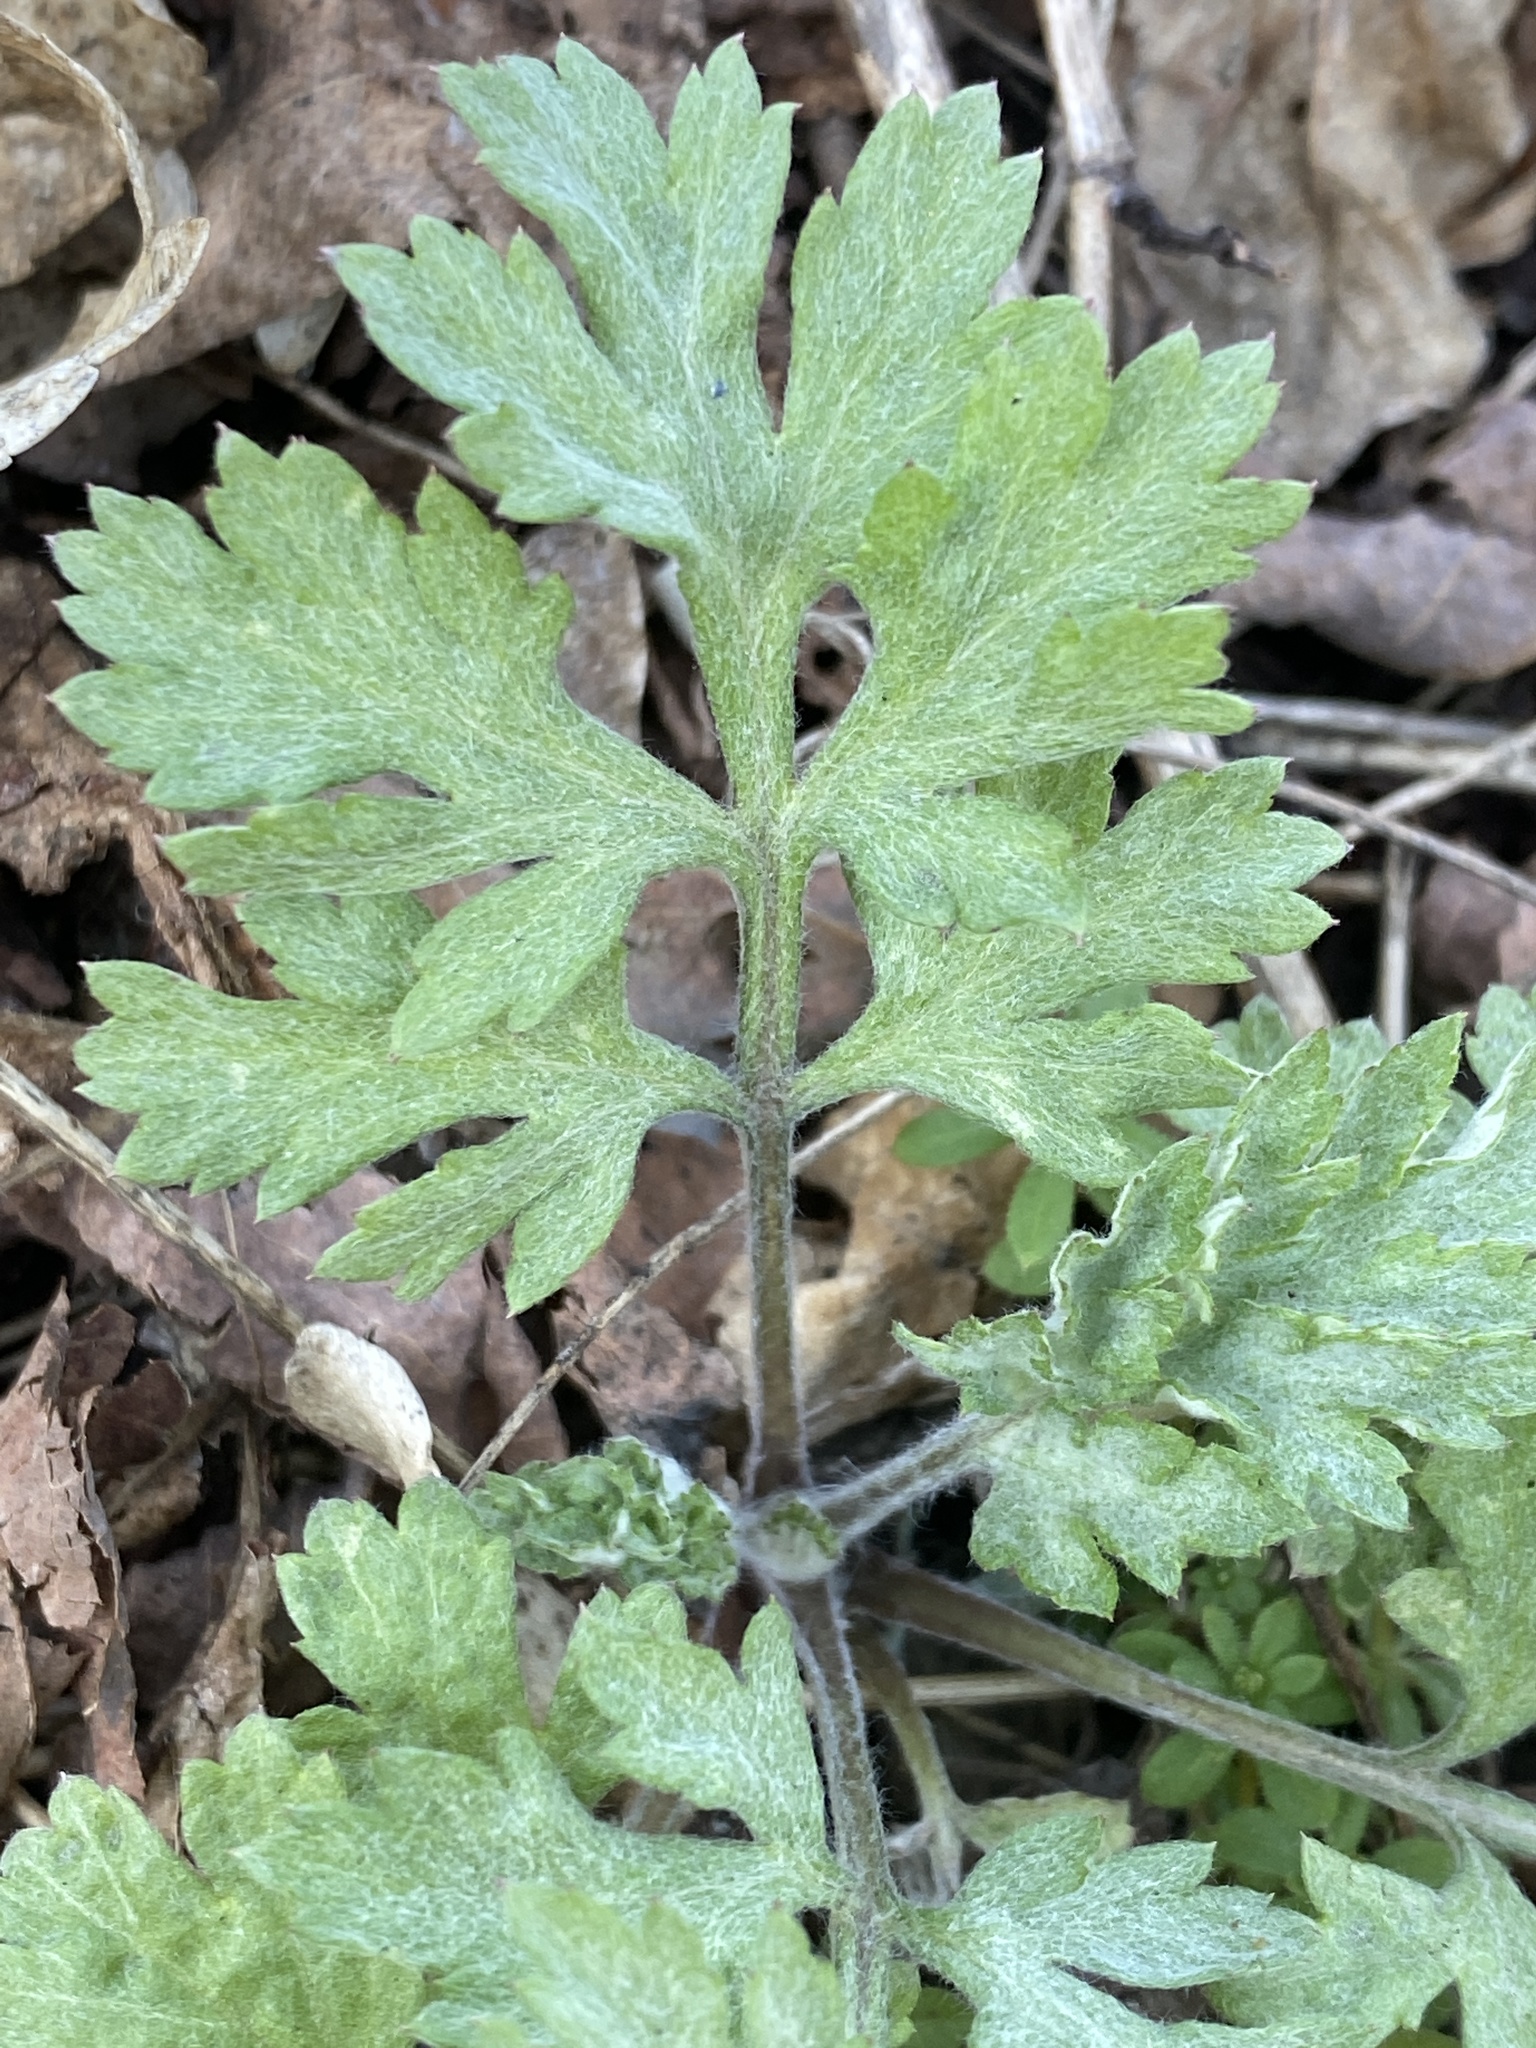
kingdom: Plantae
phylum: Tracheophyta
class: Magnoliopsida
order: Asterales
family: Asteraceae
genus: Artemisia
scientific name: Artemisia vulgaris
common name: Mugwort
